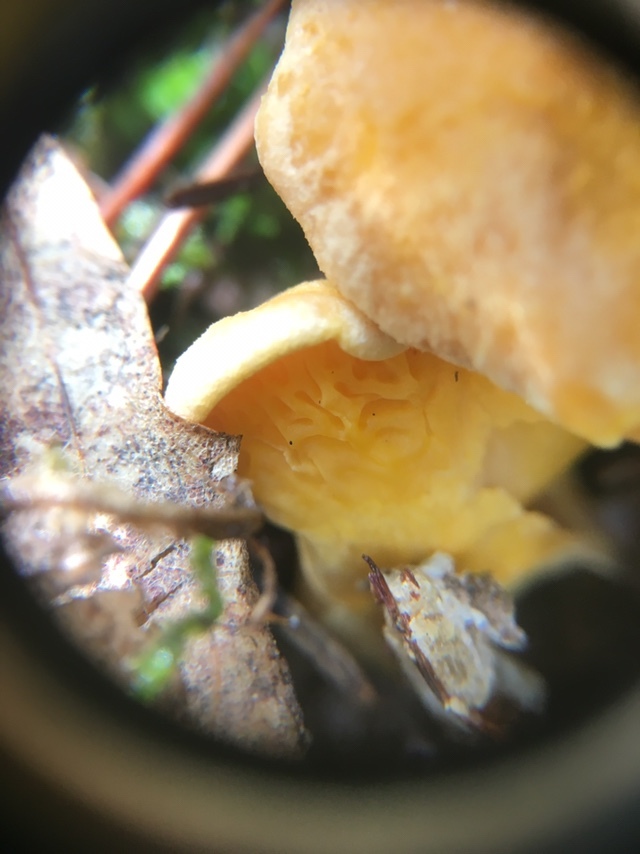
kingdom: Fungi
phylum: Basidiomycota
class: Agaricomycetes
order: Cantharellales
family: Hydnaceae
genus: Cantharellus
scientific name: Cantharellus roseocanus
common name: Rainbow chanterelle
